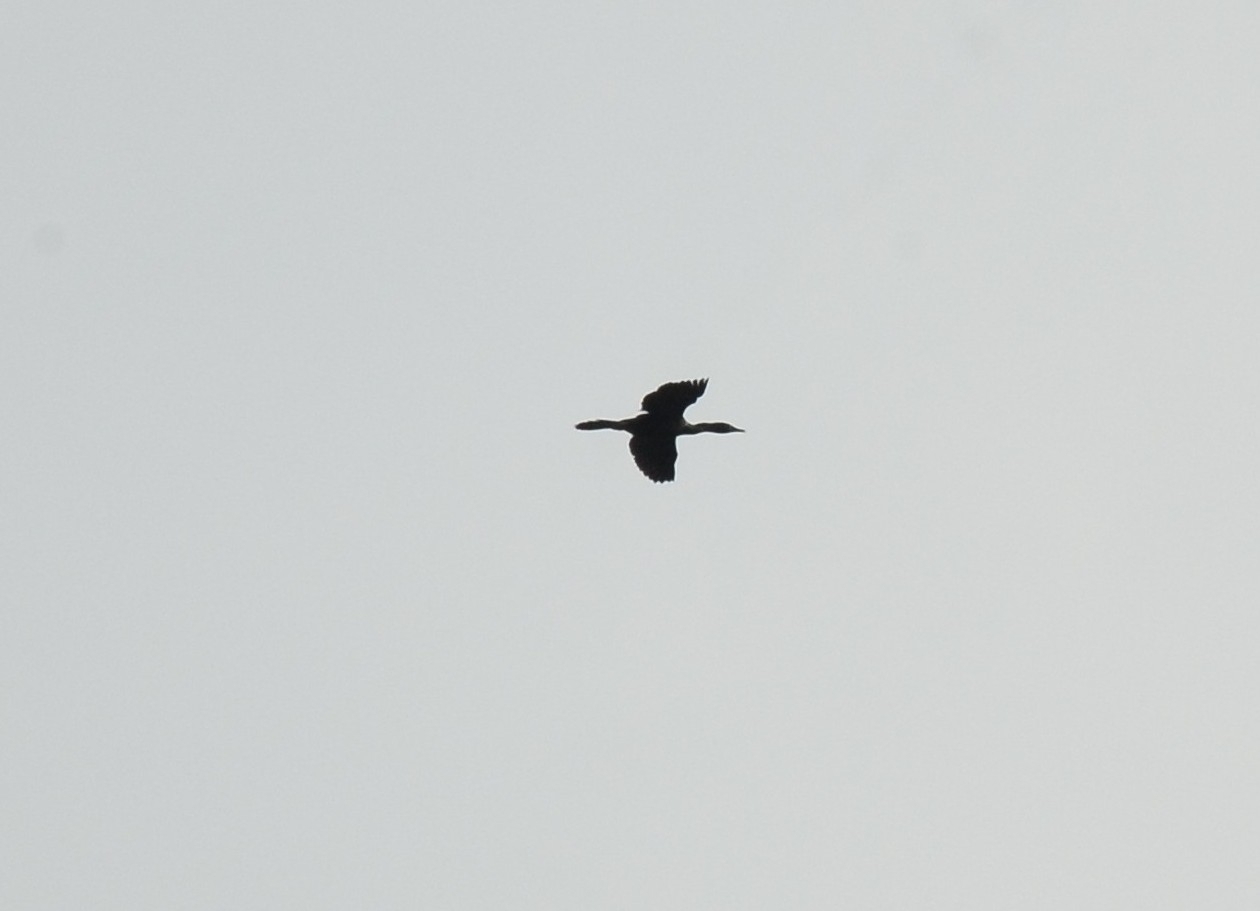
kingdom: Animalia
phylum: Chordata
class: Aves
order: Suliformes
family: Phalacrocoracidae
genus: Microcarbo
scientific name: Microcarbo niger
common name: Little cormorant
